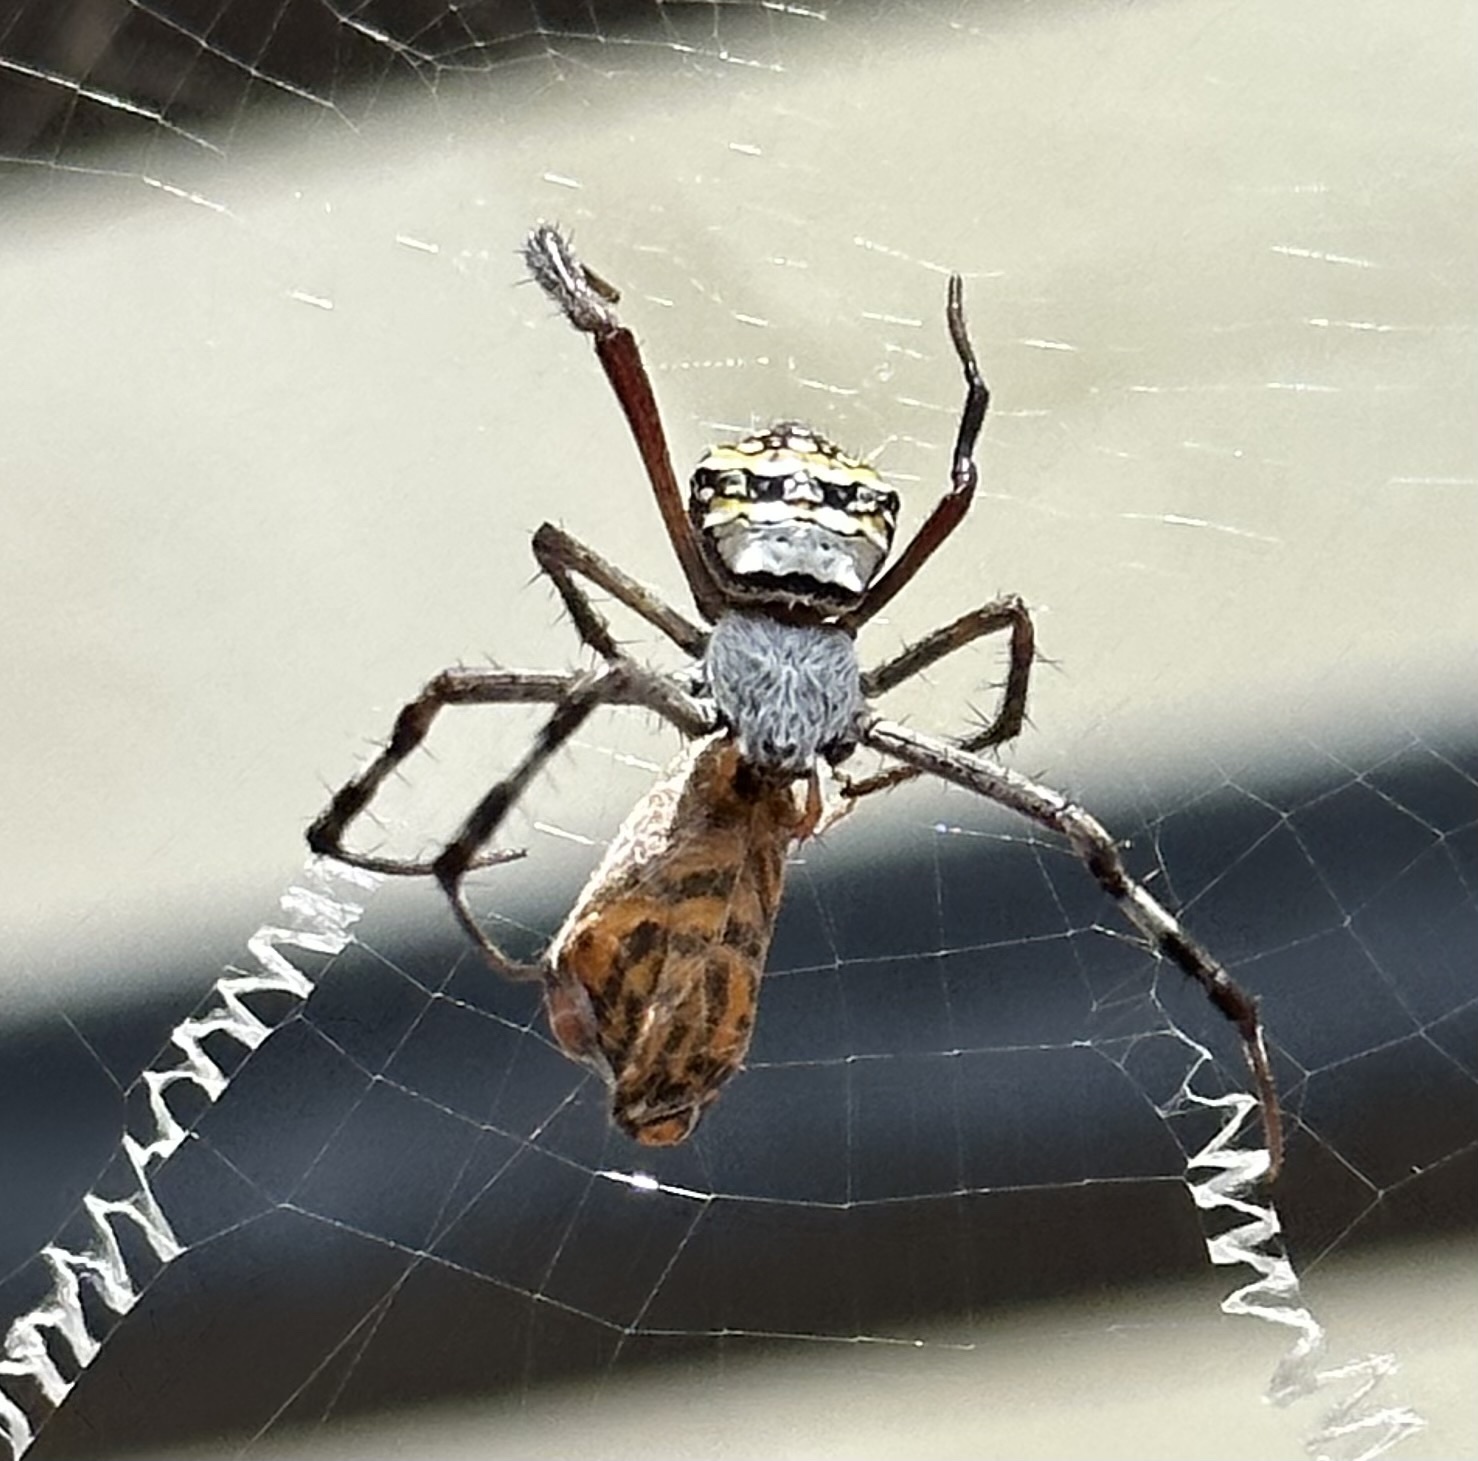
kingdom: Animalia
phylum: Arthropoda
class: Arachnida
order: Araneae
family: Araneidae
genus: Argiope
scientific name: Argiope anasuja
